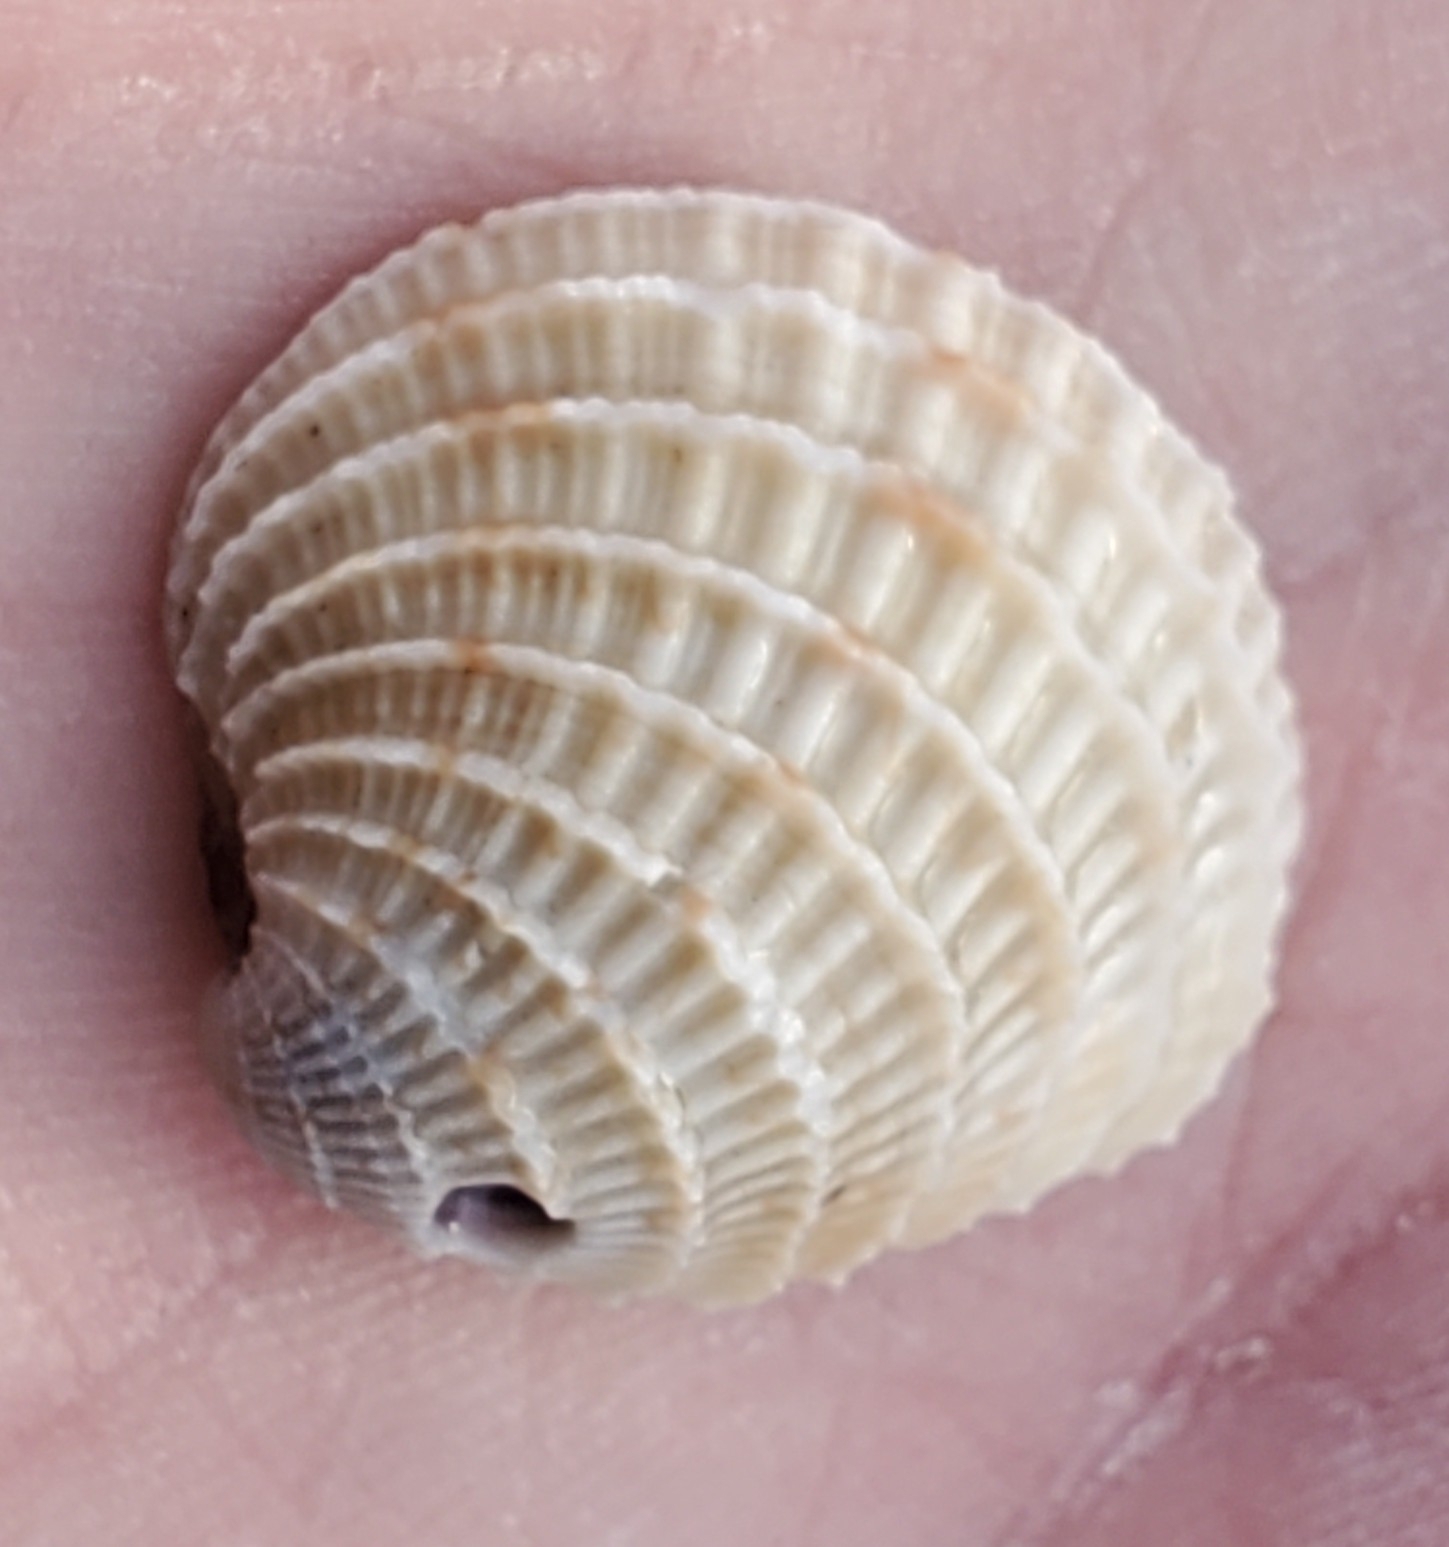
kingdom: Animalia
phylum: Mollusca
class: Bivalvia
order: Venerida
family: Veneridae
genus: Chione
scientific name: Chione elevata
